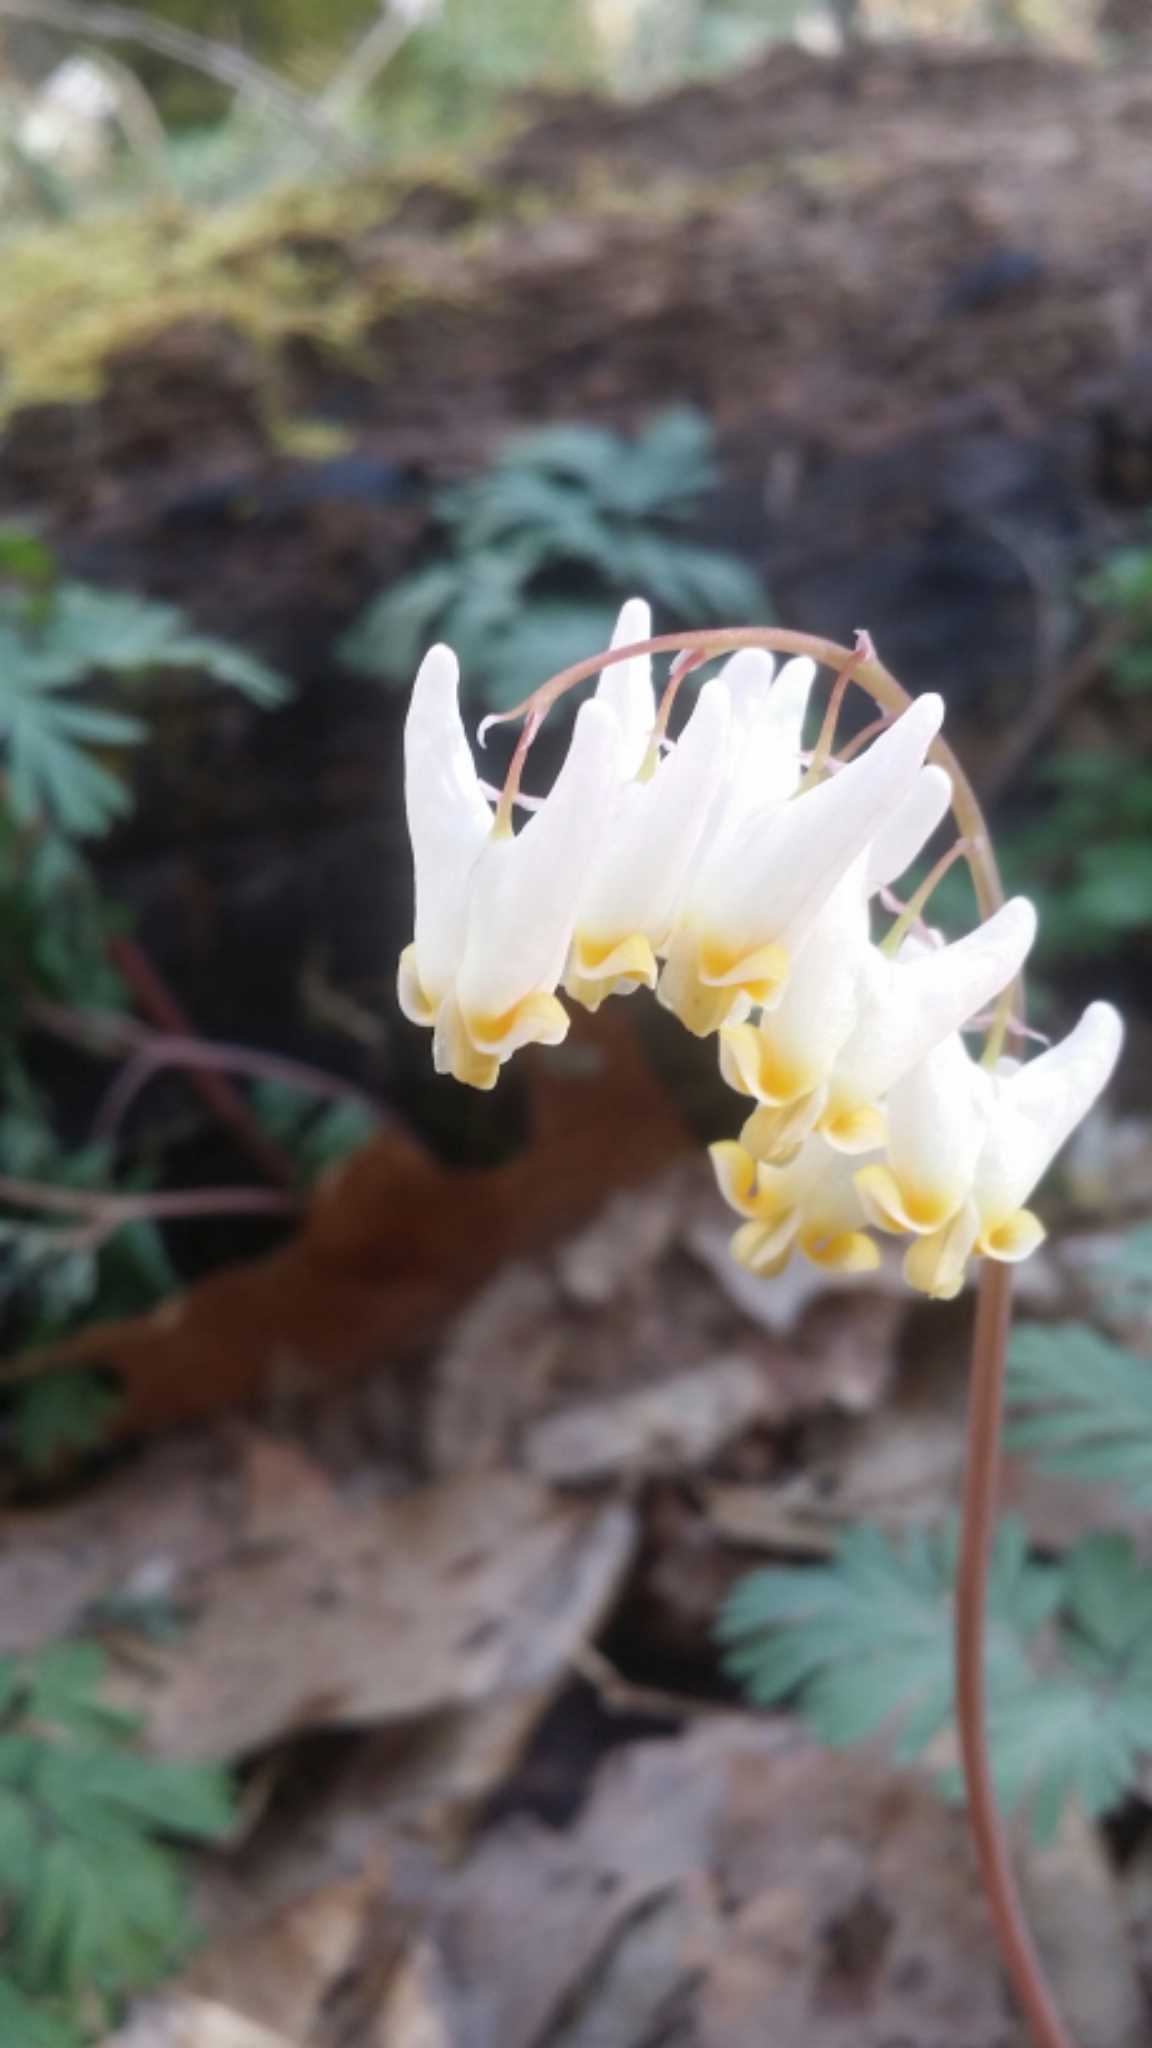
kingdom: Plantae
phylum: Tracheophyta
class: Magnoliopsida
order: Ranunculales
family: Papaveraceae
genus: Dicentra
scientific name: Dicentra cucullaria
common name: Dutchman's breeches
